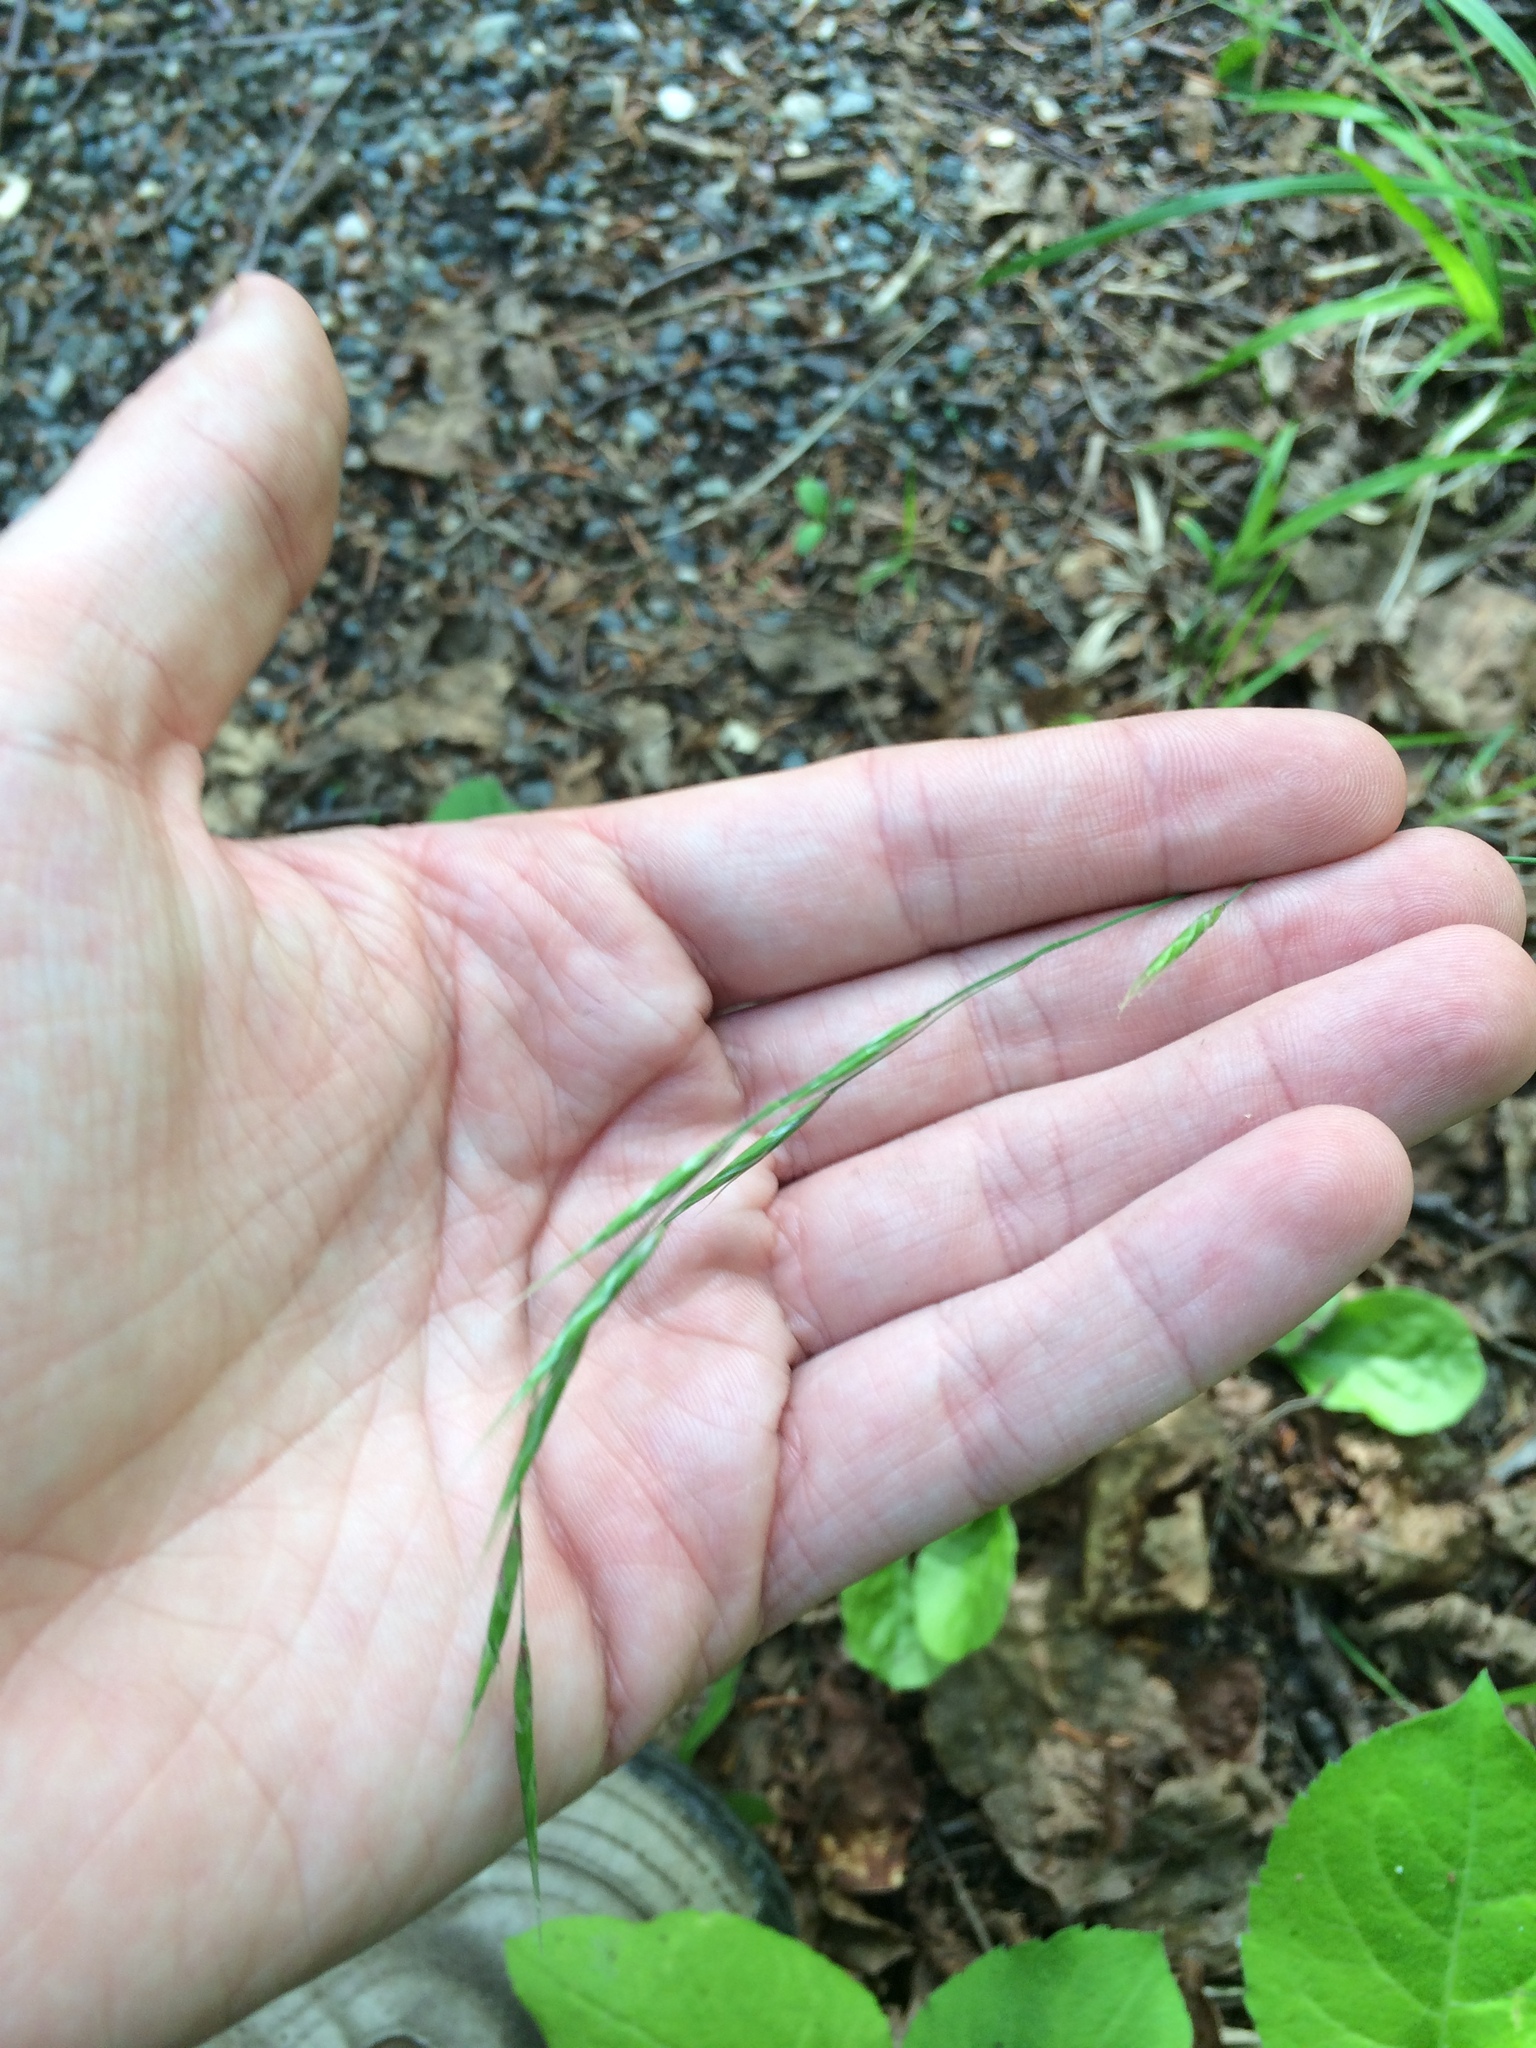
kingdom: Plantae
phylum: Tracheophyta
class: Liliopsida
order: Poales
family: Poaceae
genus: Schizachne
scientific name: Schizachne purpurascens
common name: False melic
